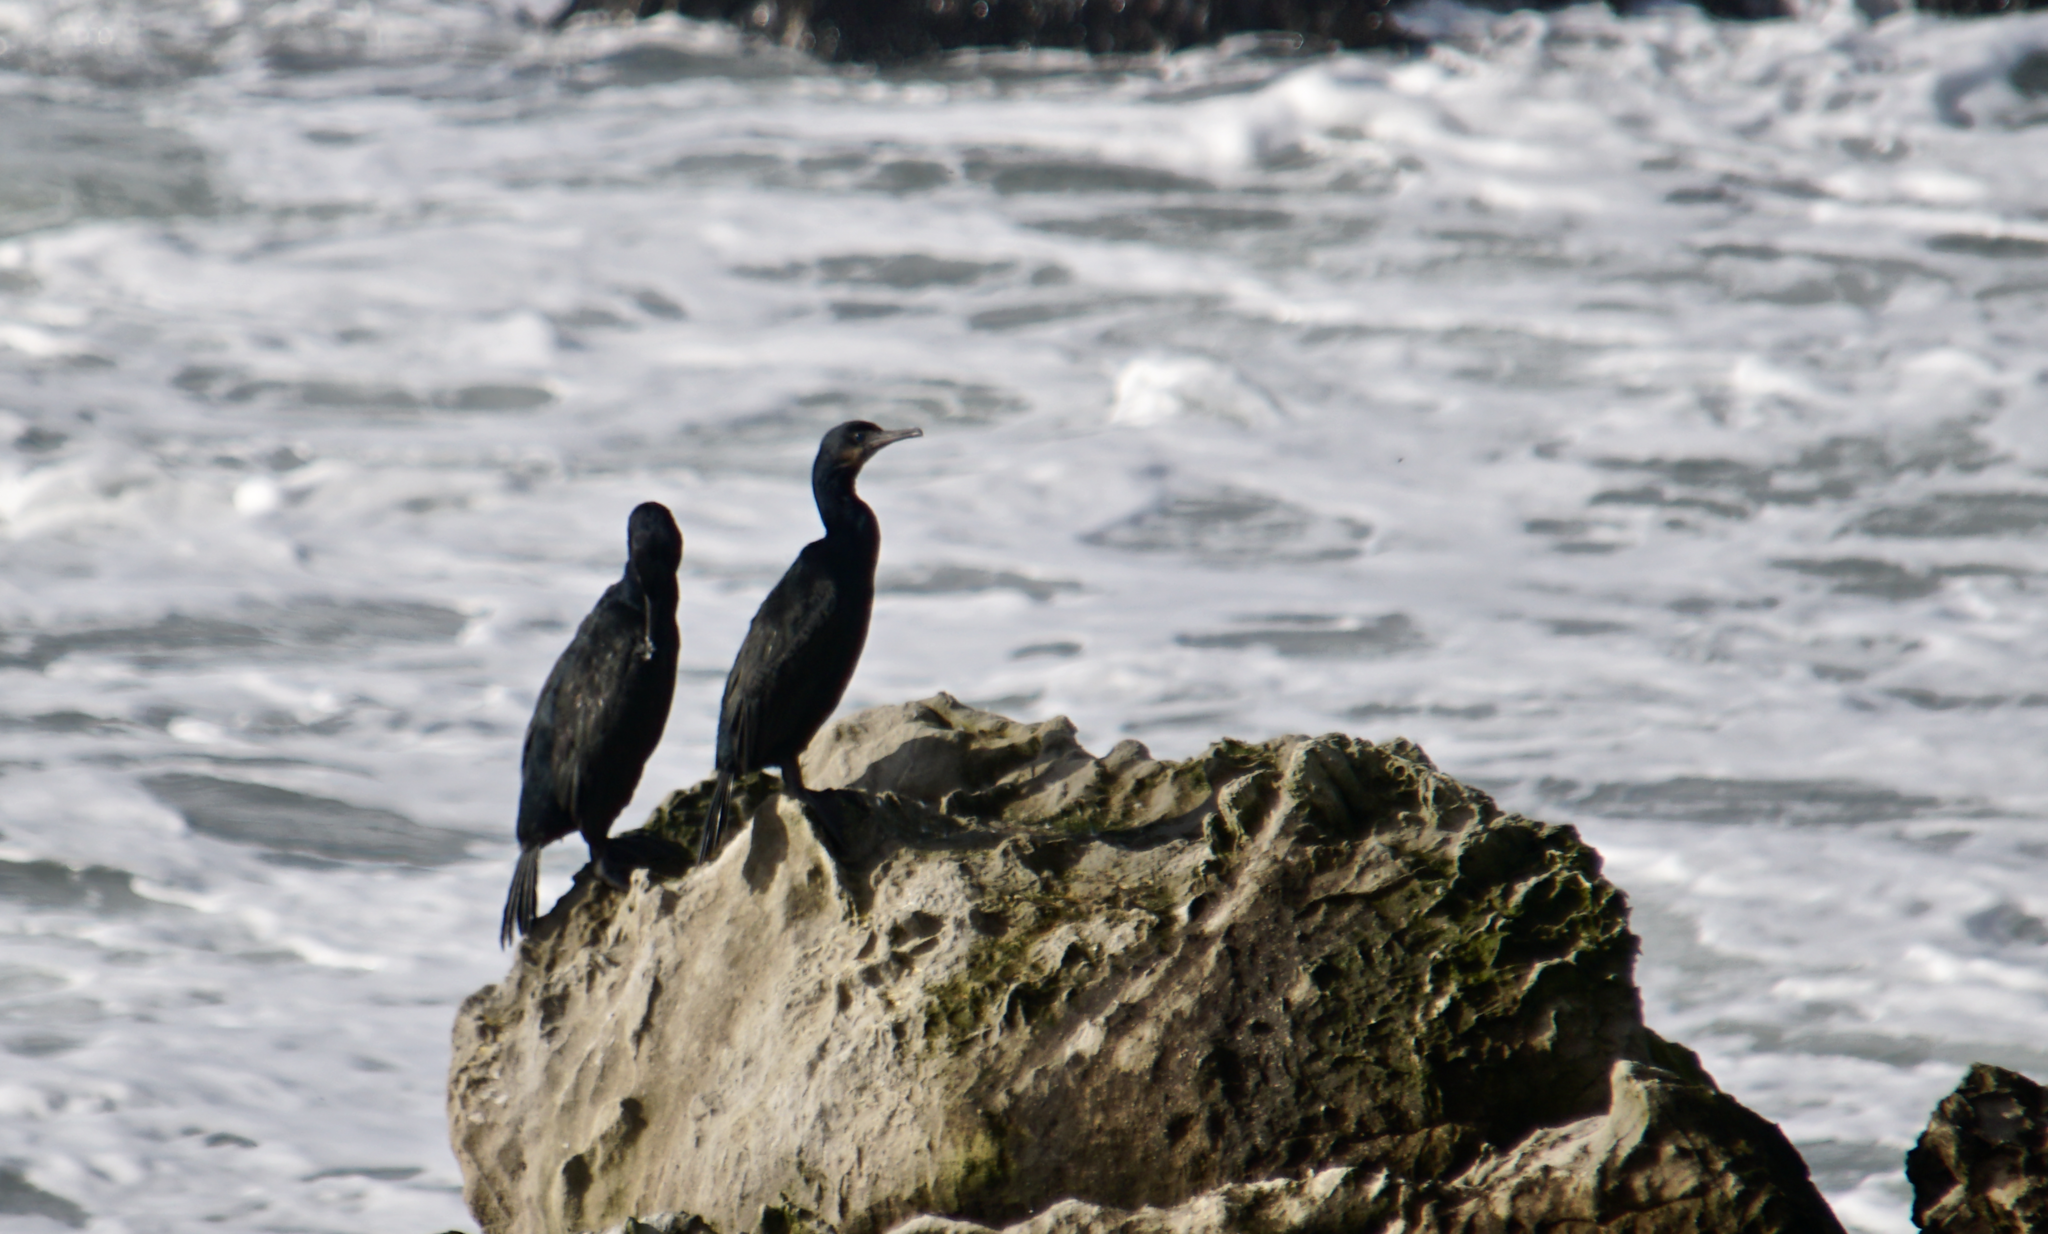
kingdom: Animalia
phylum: Chordata
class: Aves
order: Suliformes
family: Phalacrocoracidae
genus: Urile
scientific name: Urile penicillatus
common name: Brandt's cormorant
